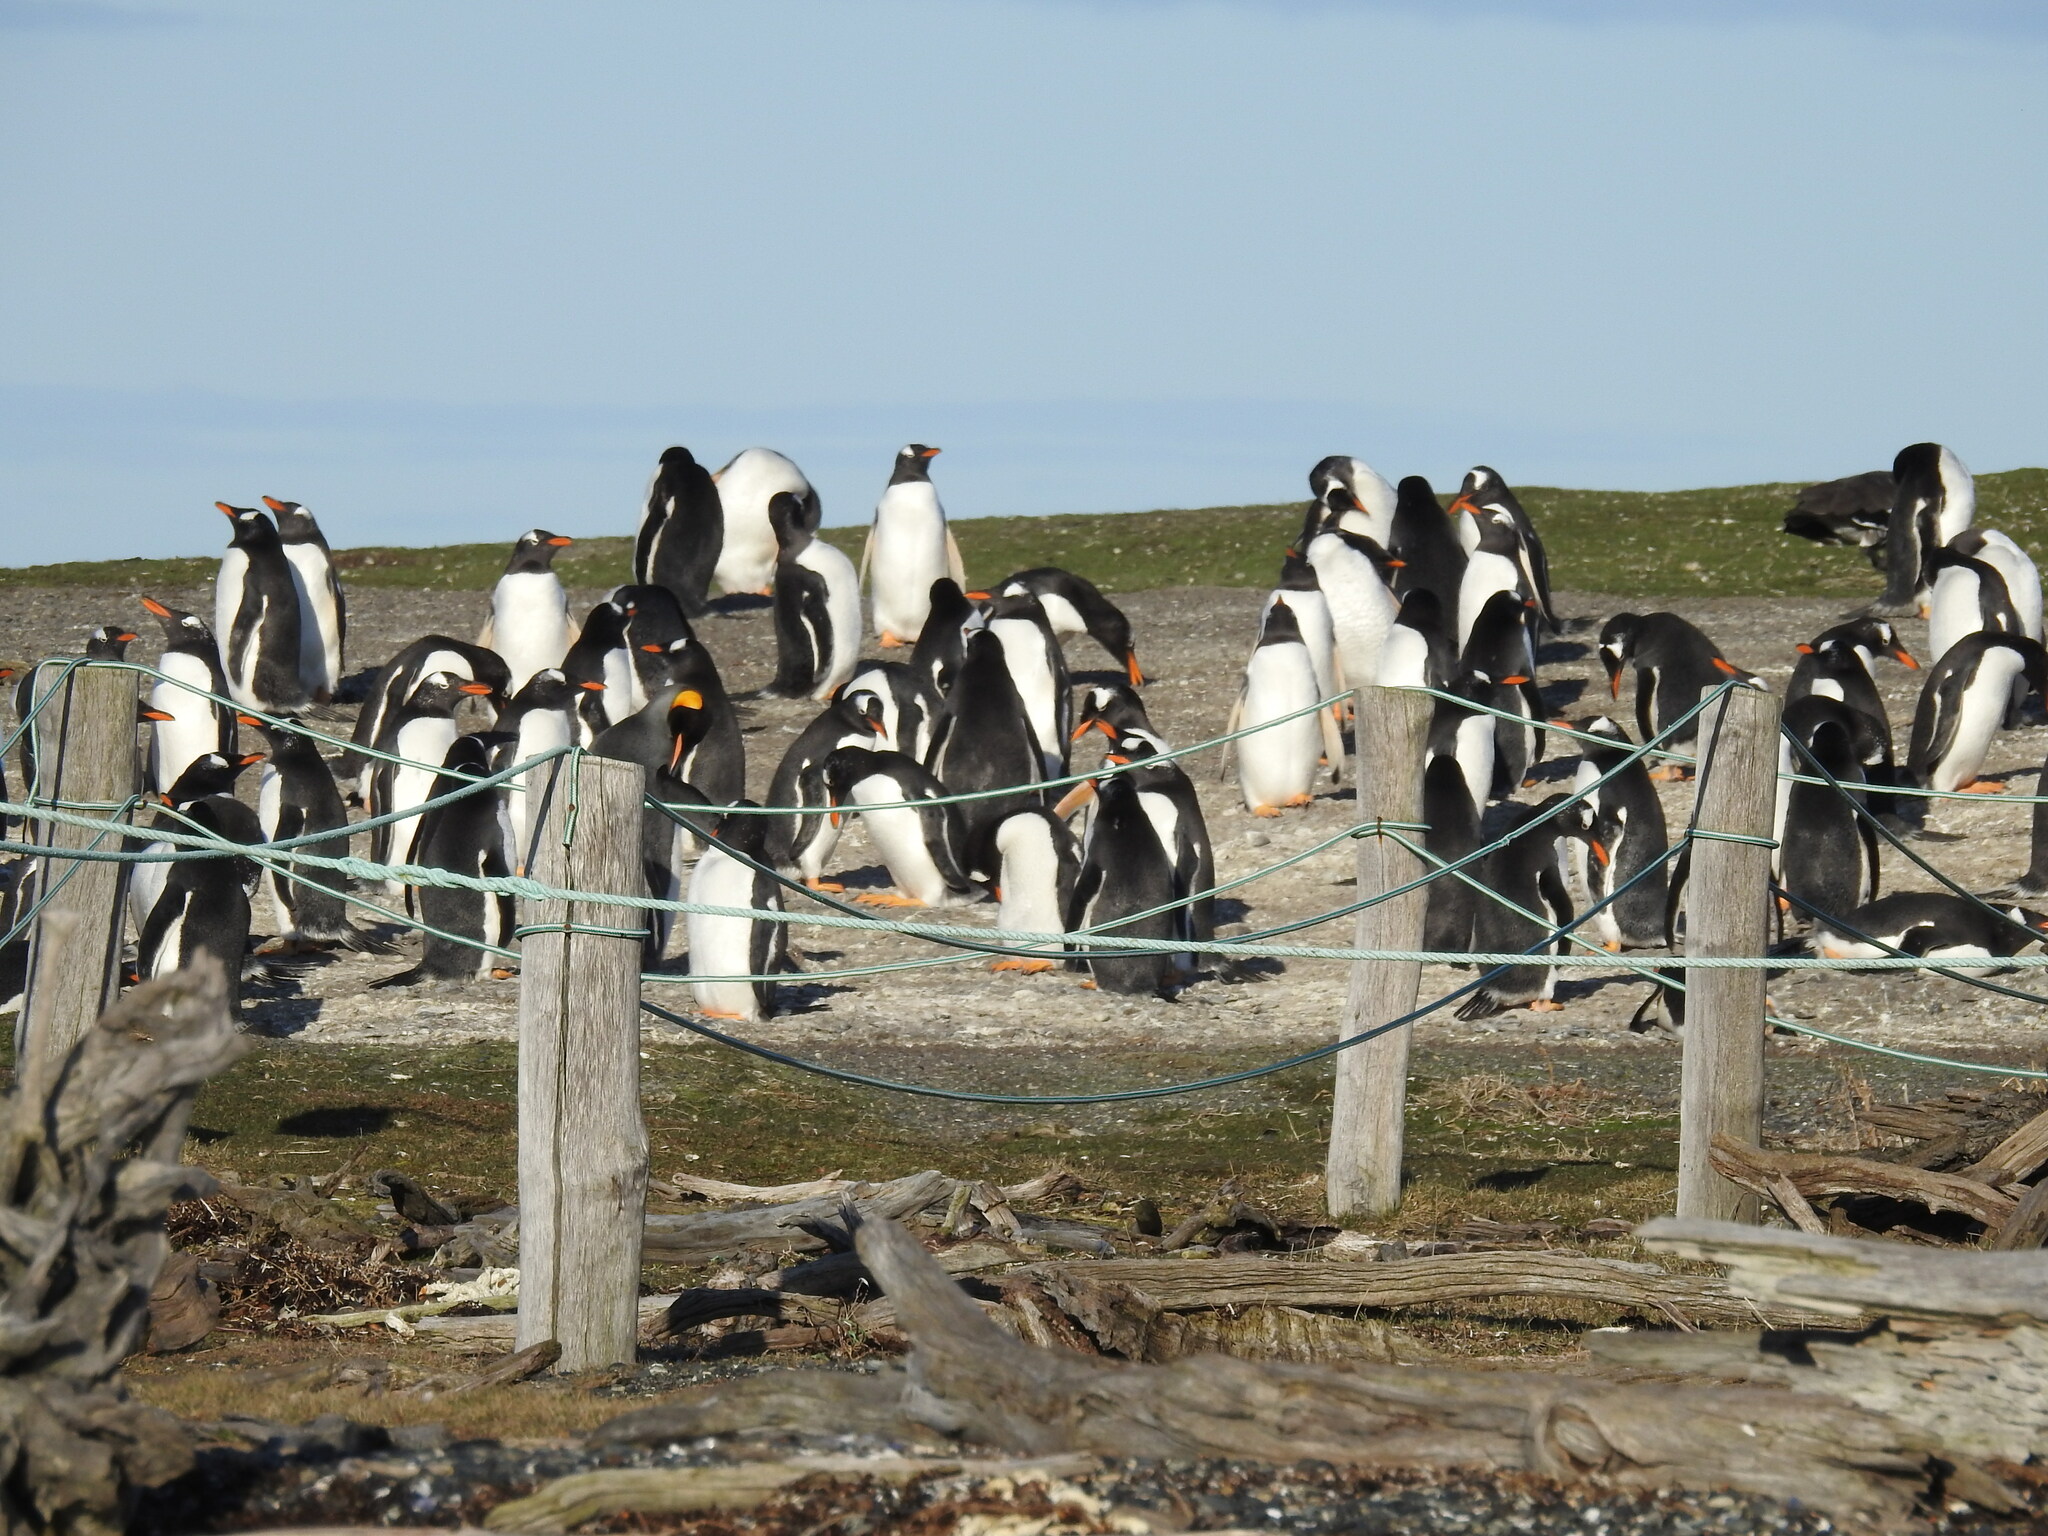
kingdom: Animalia
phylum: Chordata
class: Aves
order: Sphenisciformes
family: Spheniscidae
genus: Aptenodytes
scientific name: Aptenodytes patagonicus
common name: King penguin
